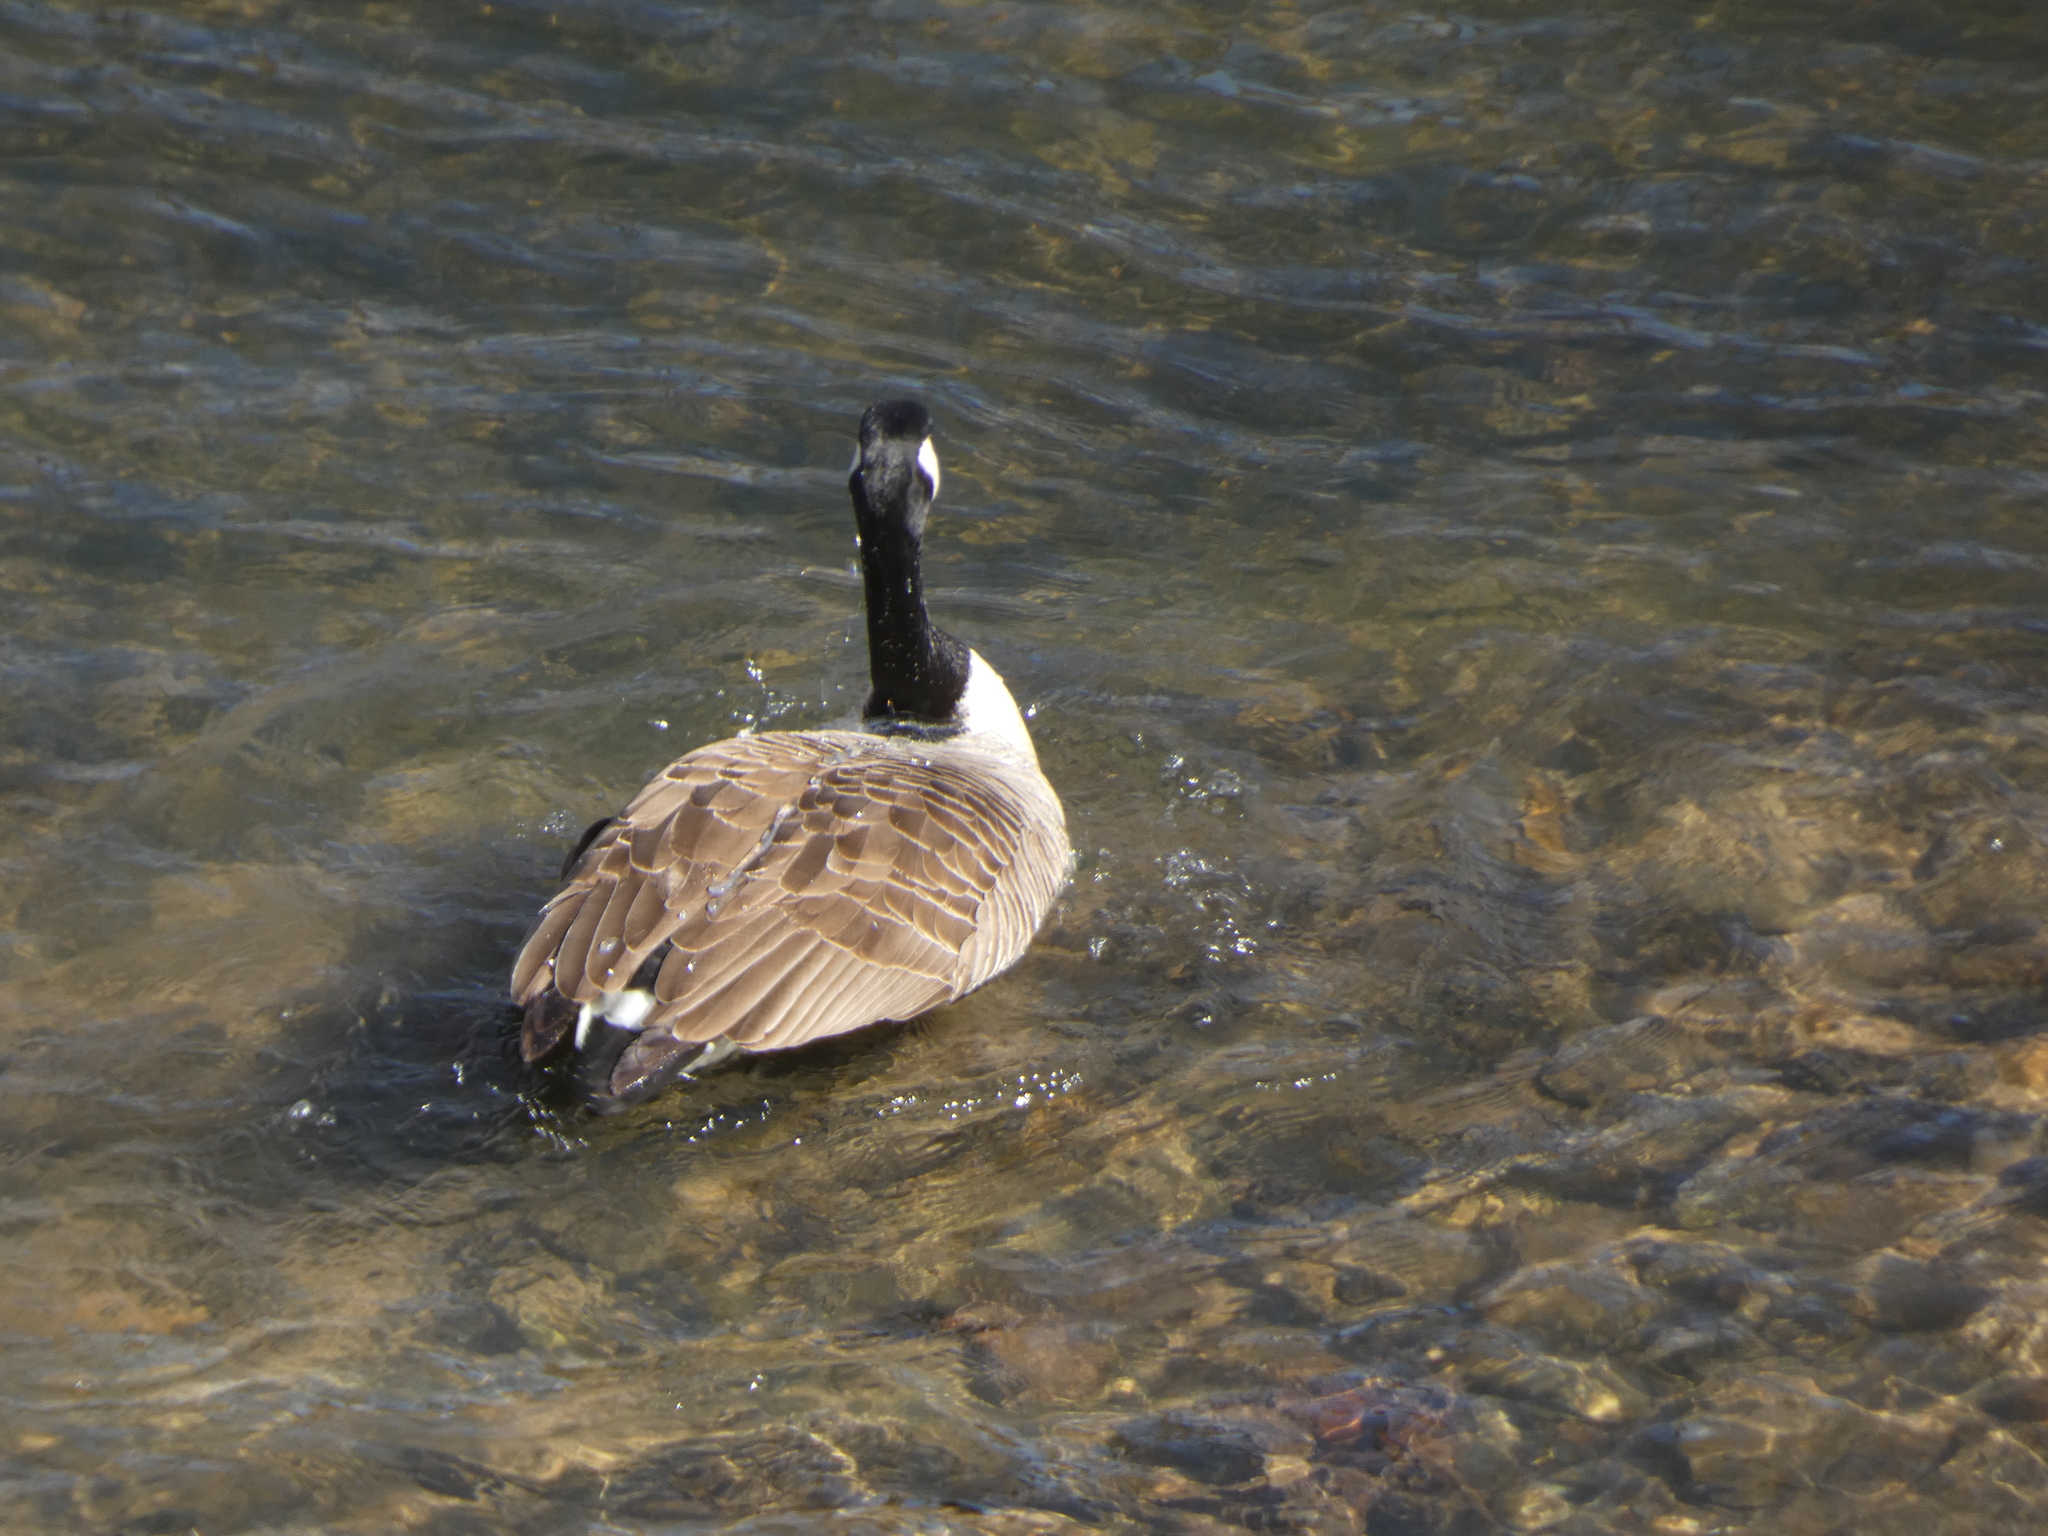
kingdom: Animalia
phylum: Chordata
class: Aves
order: Anseriformes
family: Anatidae
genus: Branta
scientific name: Branta canadensis
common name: Canada goose
